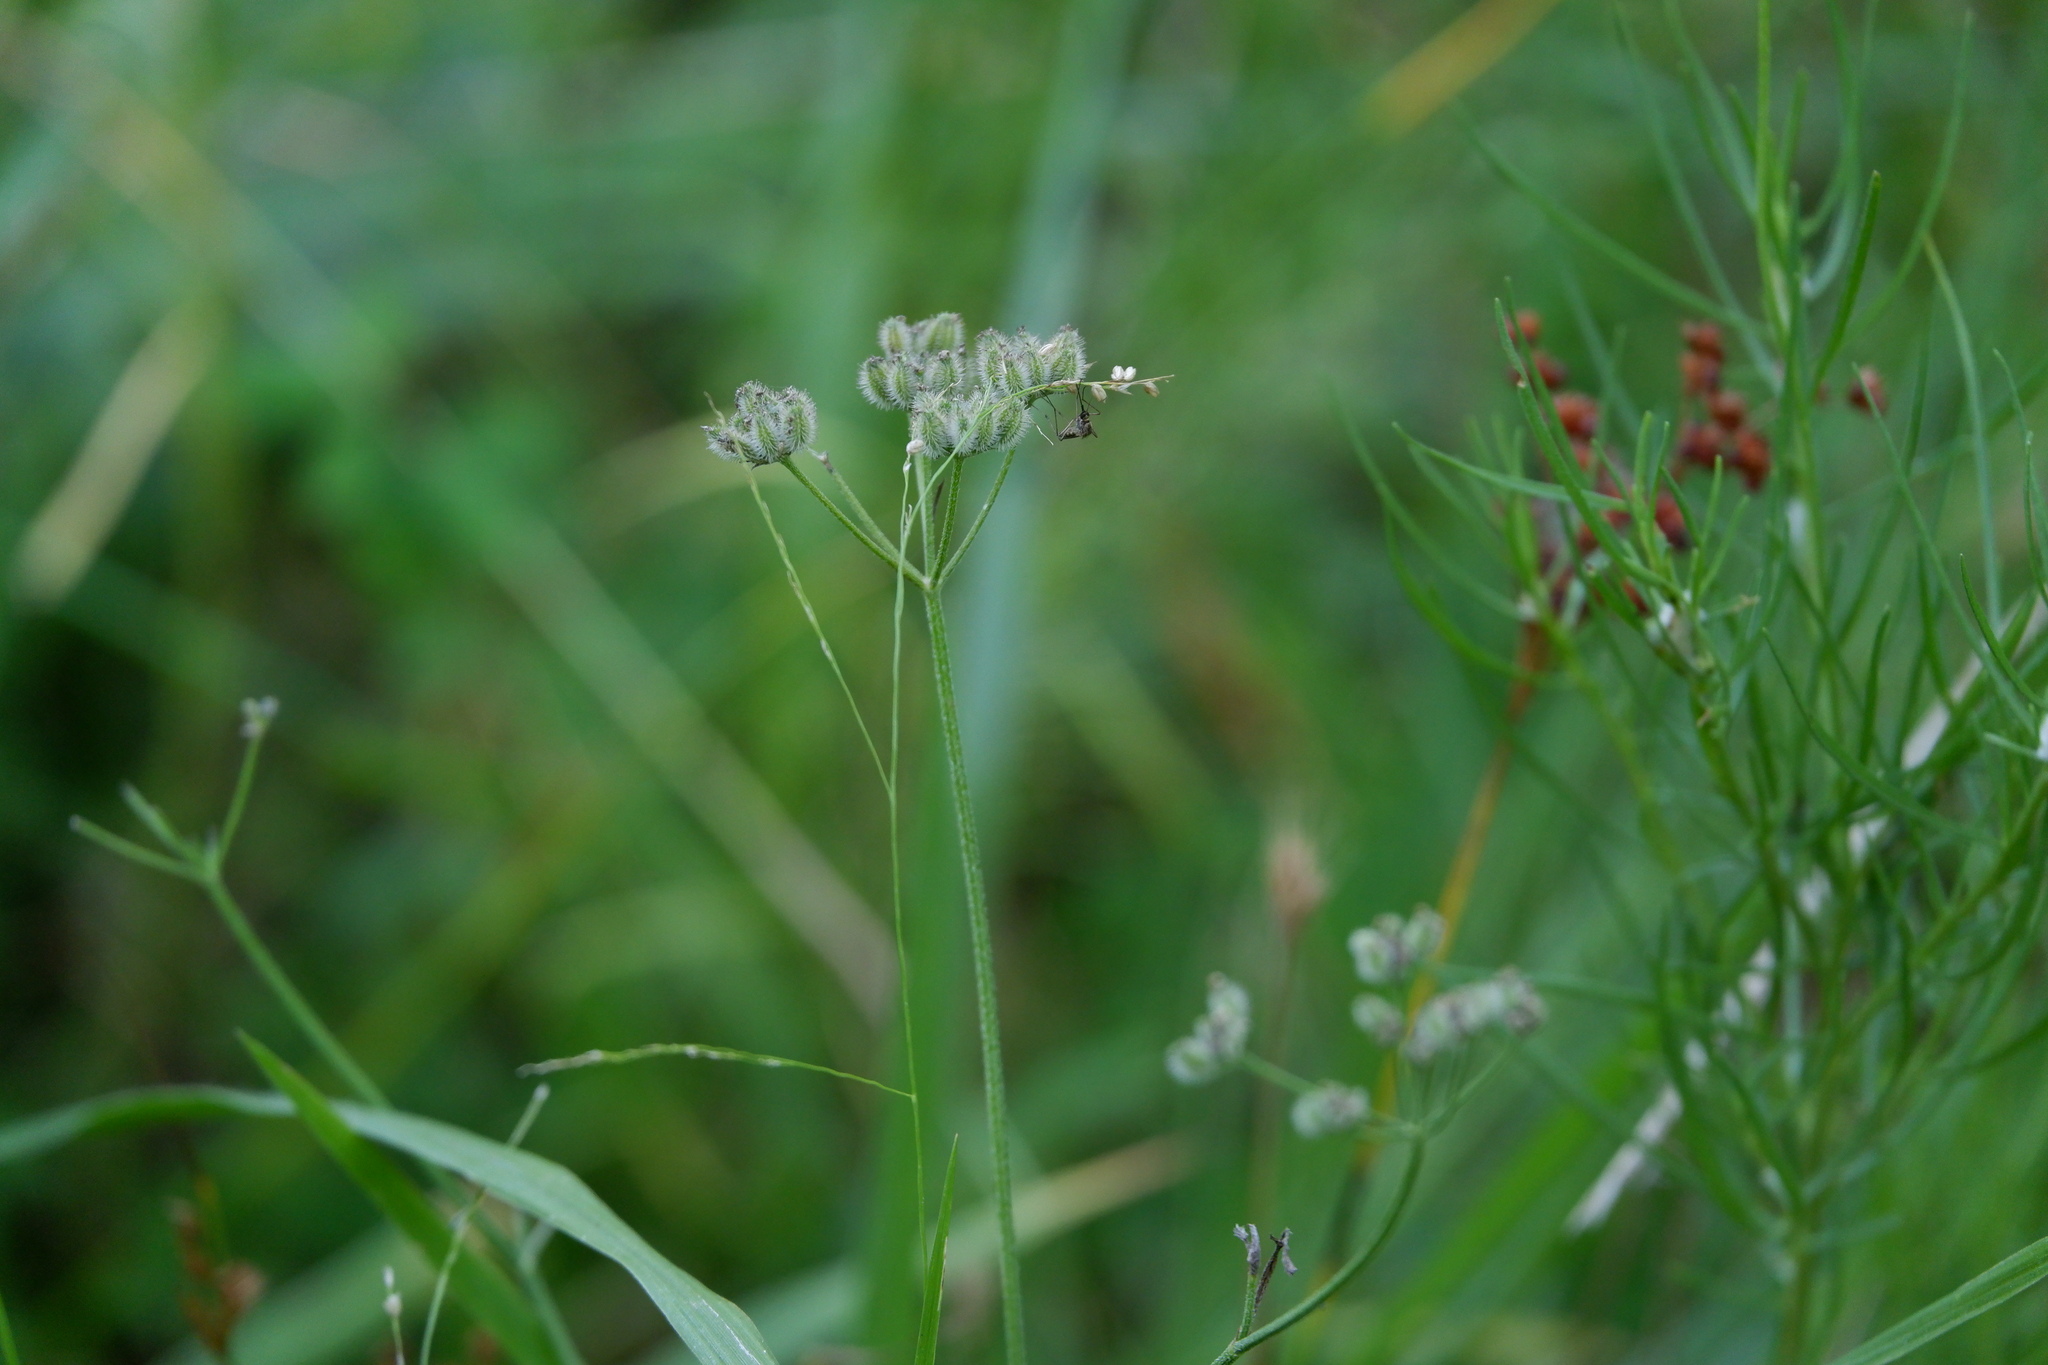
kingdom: Plantae
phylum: Tracheophyta
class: Magnoliopsida
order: Apiales
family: Apiaceae
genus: Torilis
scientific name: Torilis arvensis
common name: Spreading hedge-parsley
